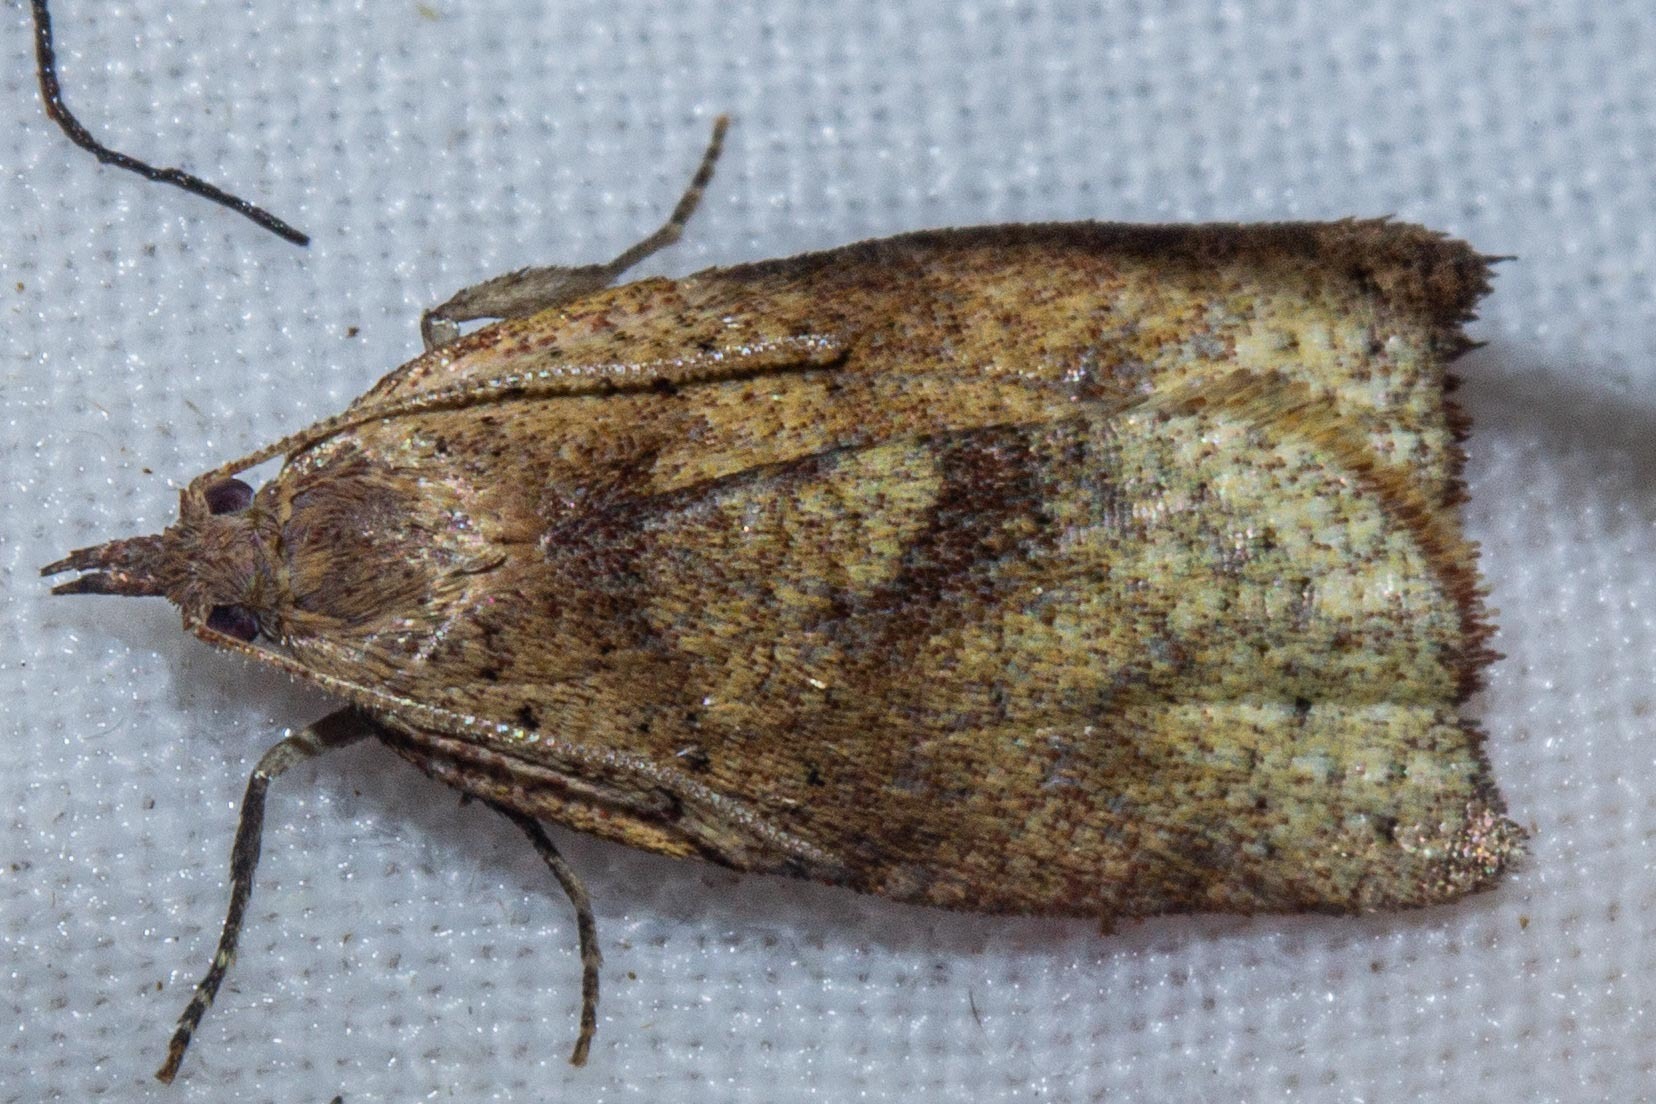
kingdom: Animalia
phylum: Arthropoda
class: Insecta
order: Lepidoptera
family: Tortricidae
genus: Apoctena
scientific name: Apoctena flavescens
